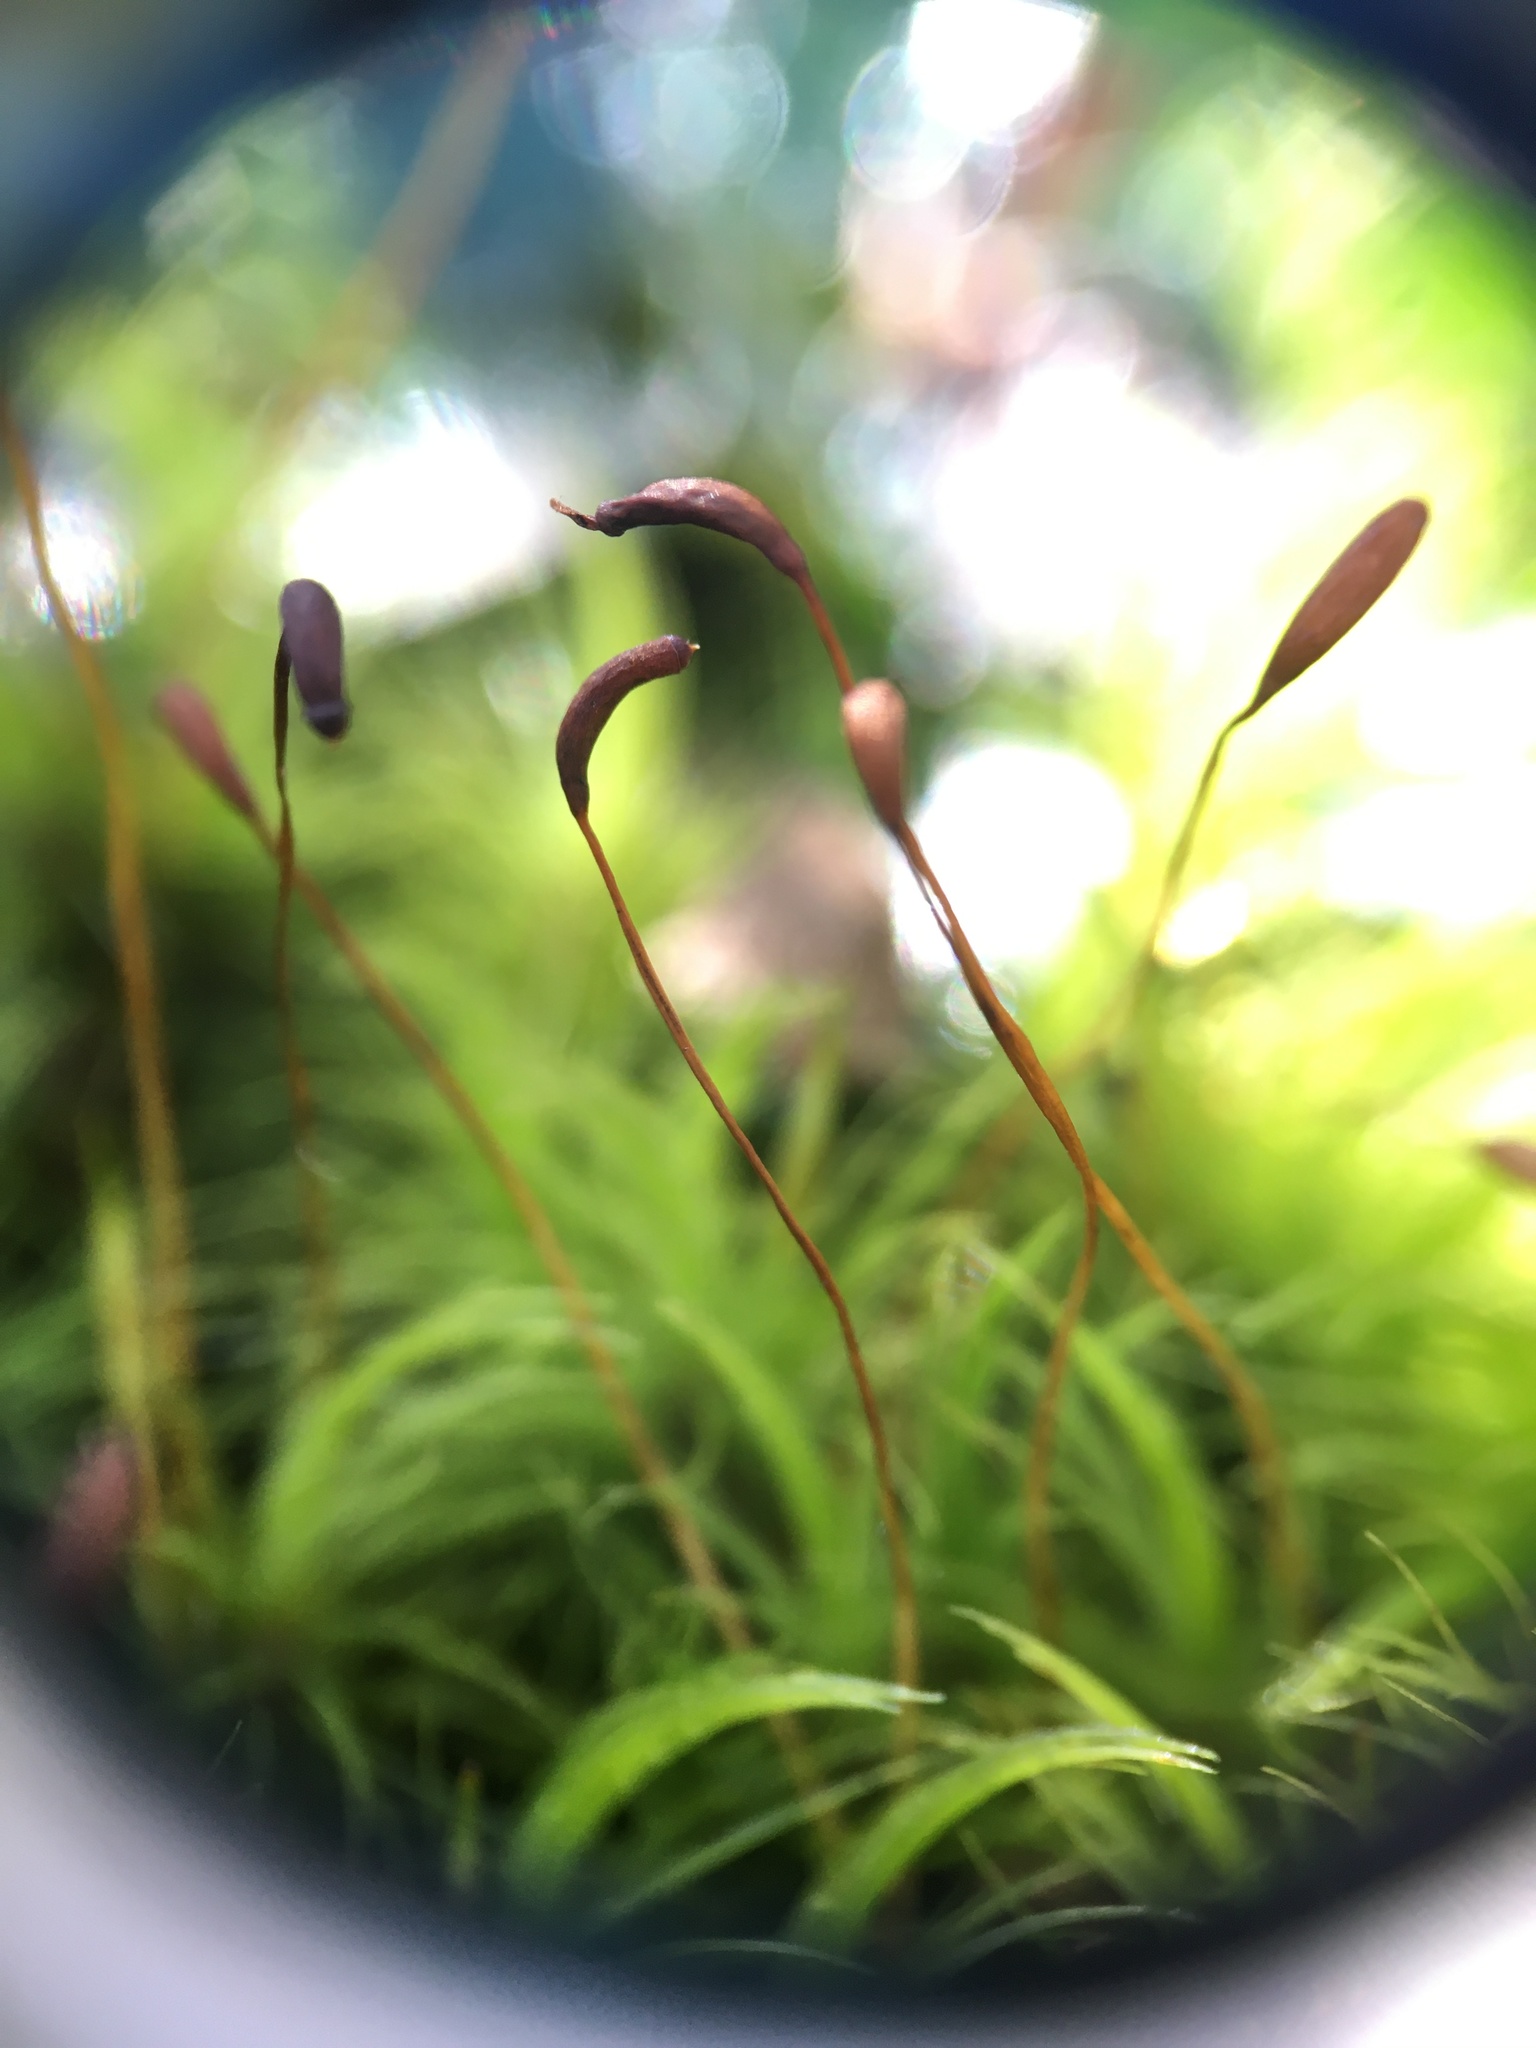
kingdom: Plantae
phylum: Bryophyta
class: Bryopsida
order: Dicranales
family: Dicranaceae
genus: Dicranum
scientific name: Dicranum scoparium
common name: Broom fork-moss
